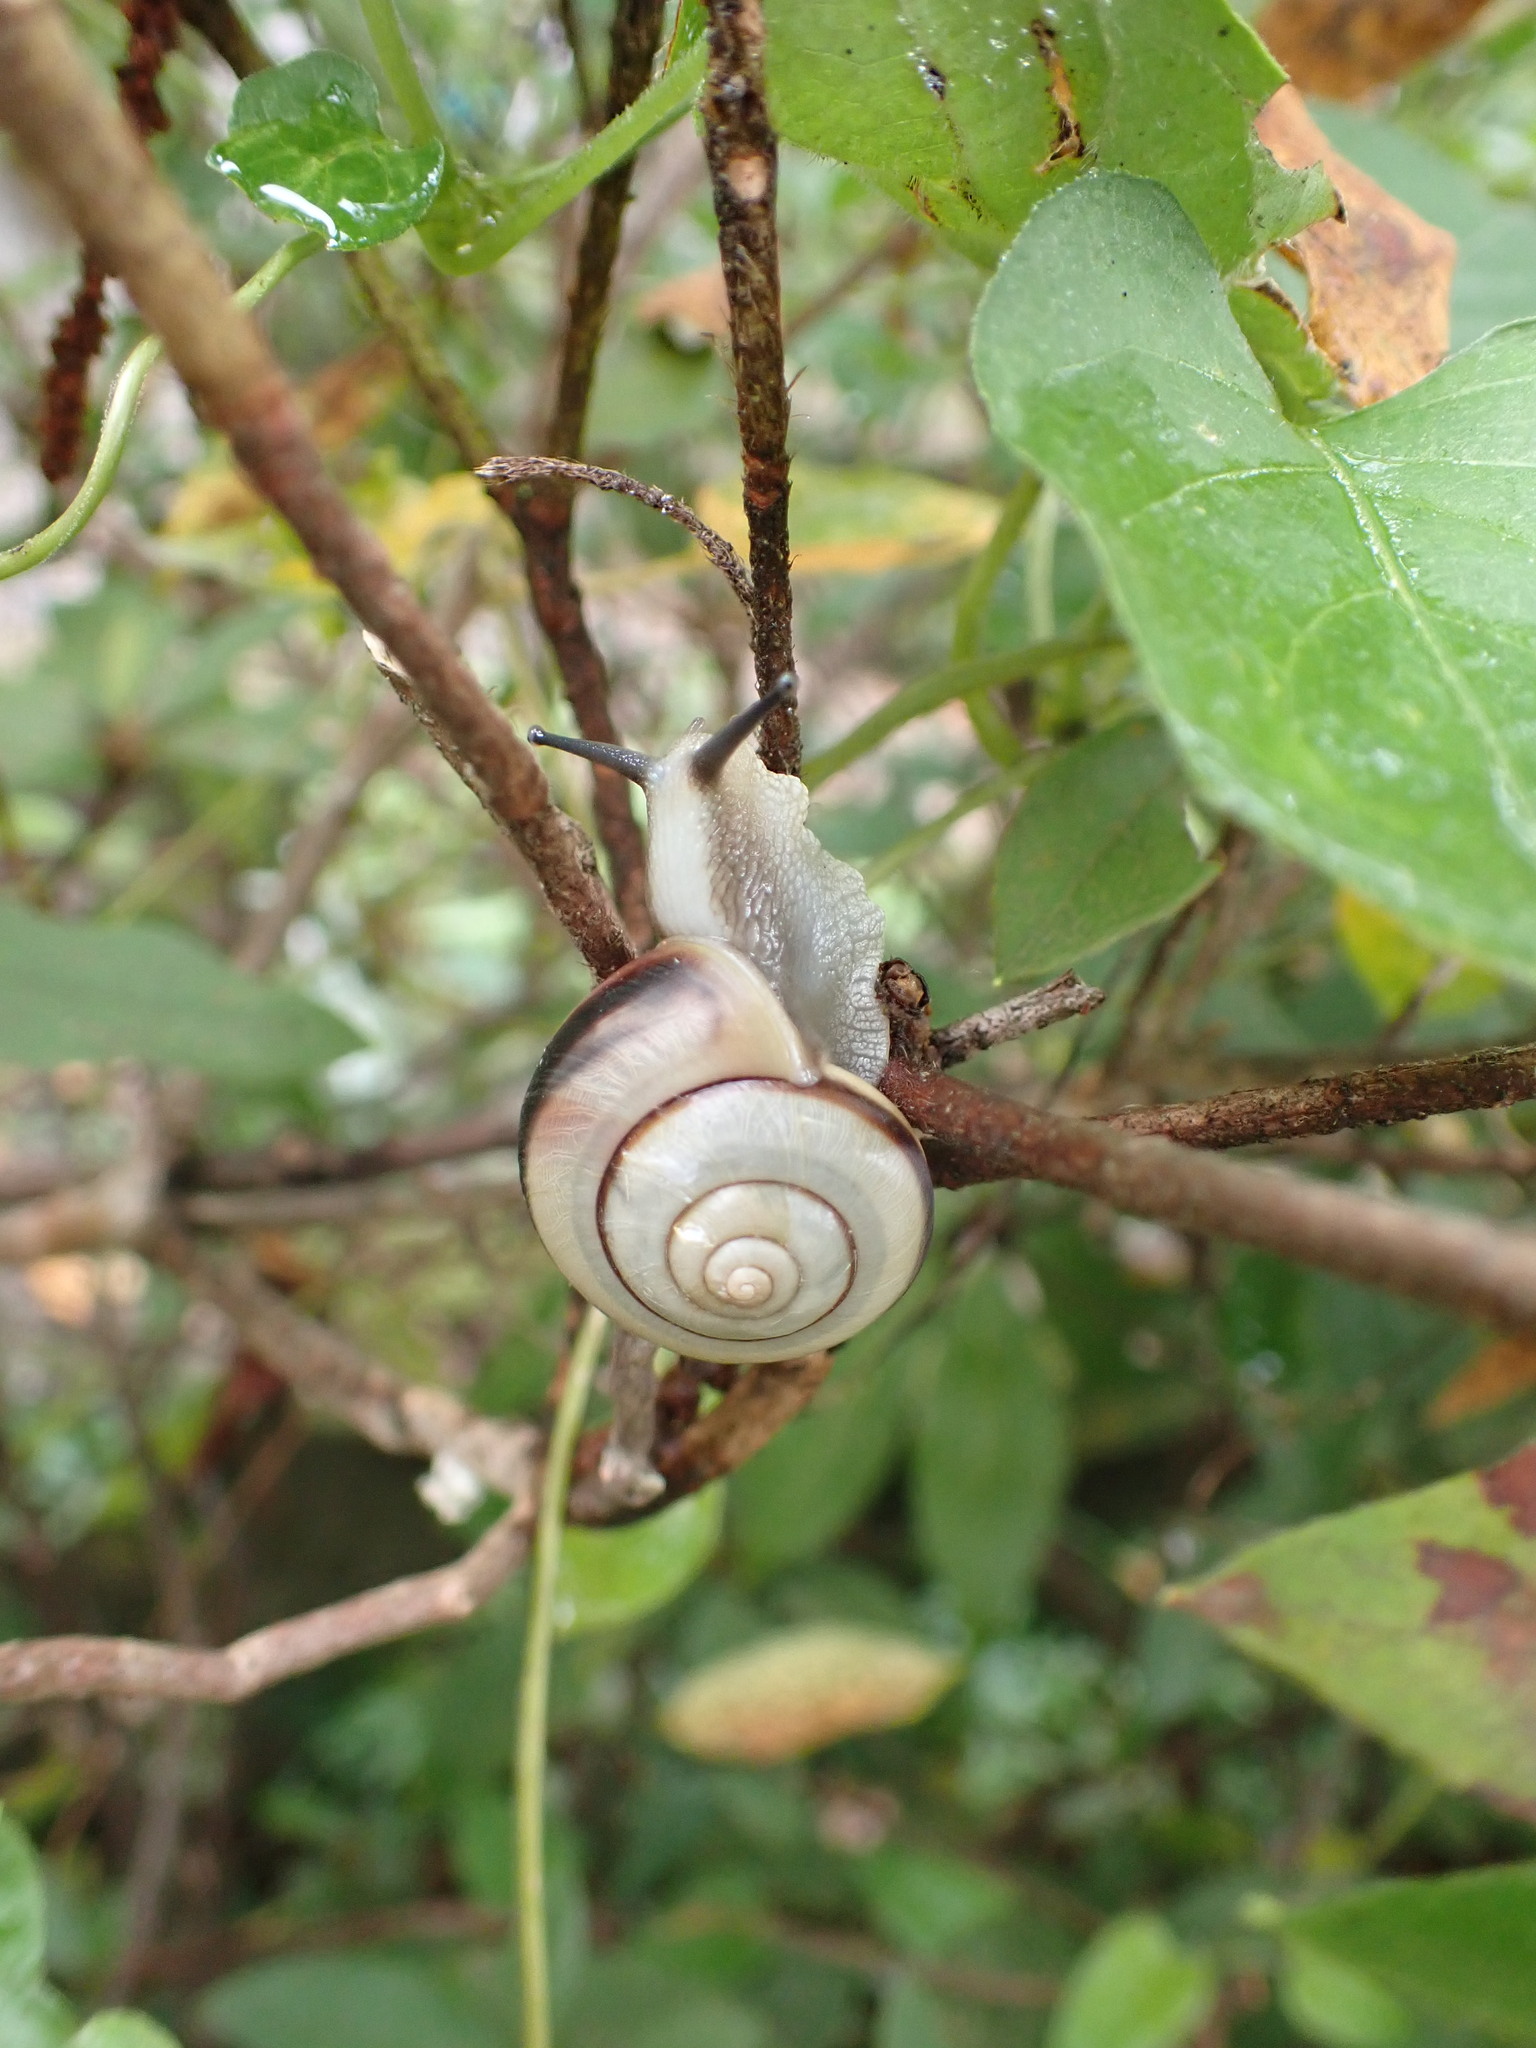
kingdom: Animalia
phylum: Mollusca
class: Gastropoda
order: Stylommatophora
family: Camaenidae
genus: Euhadra
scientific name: Euhadra amaliae
